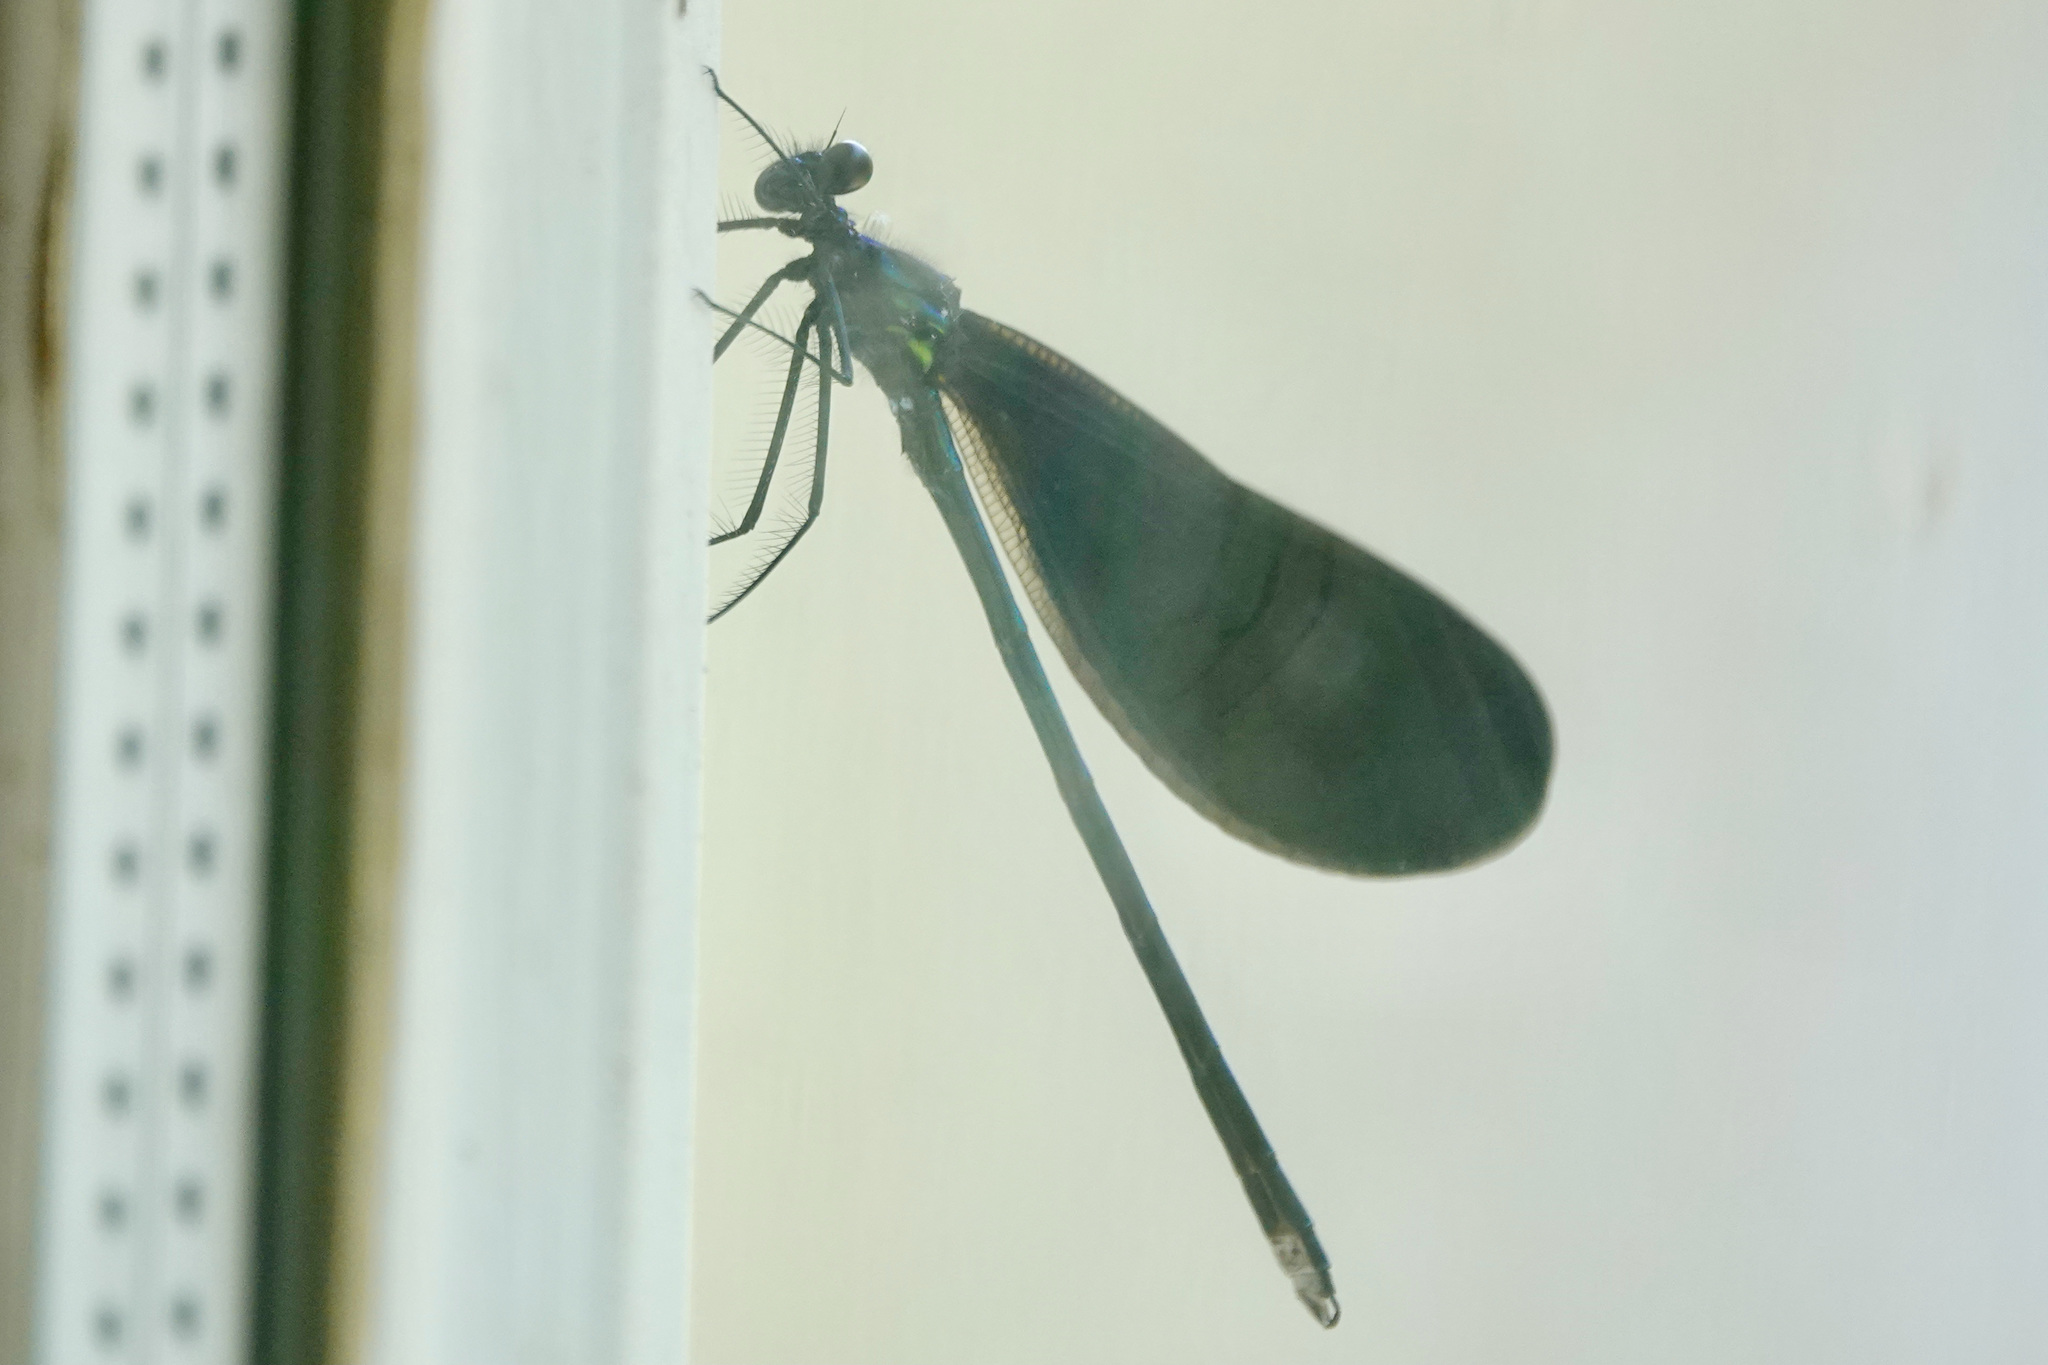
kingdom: Animalia
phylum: Arthropoda
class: Insecta
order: Odonata
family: Calopterygidae
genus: Calopteryx
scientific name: Calopteryx maculata
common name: Ebony jewelwing
